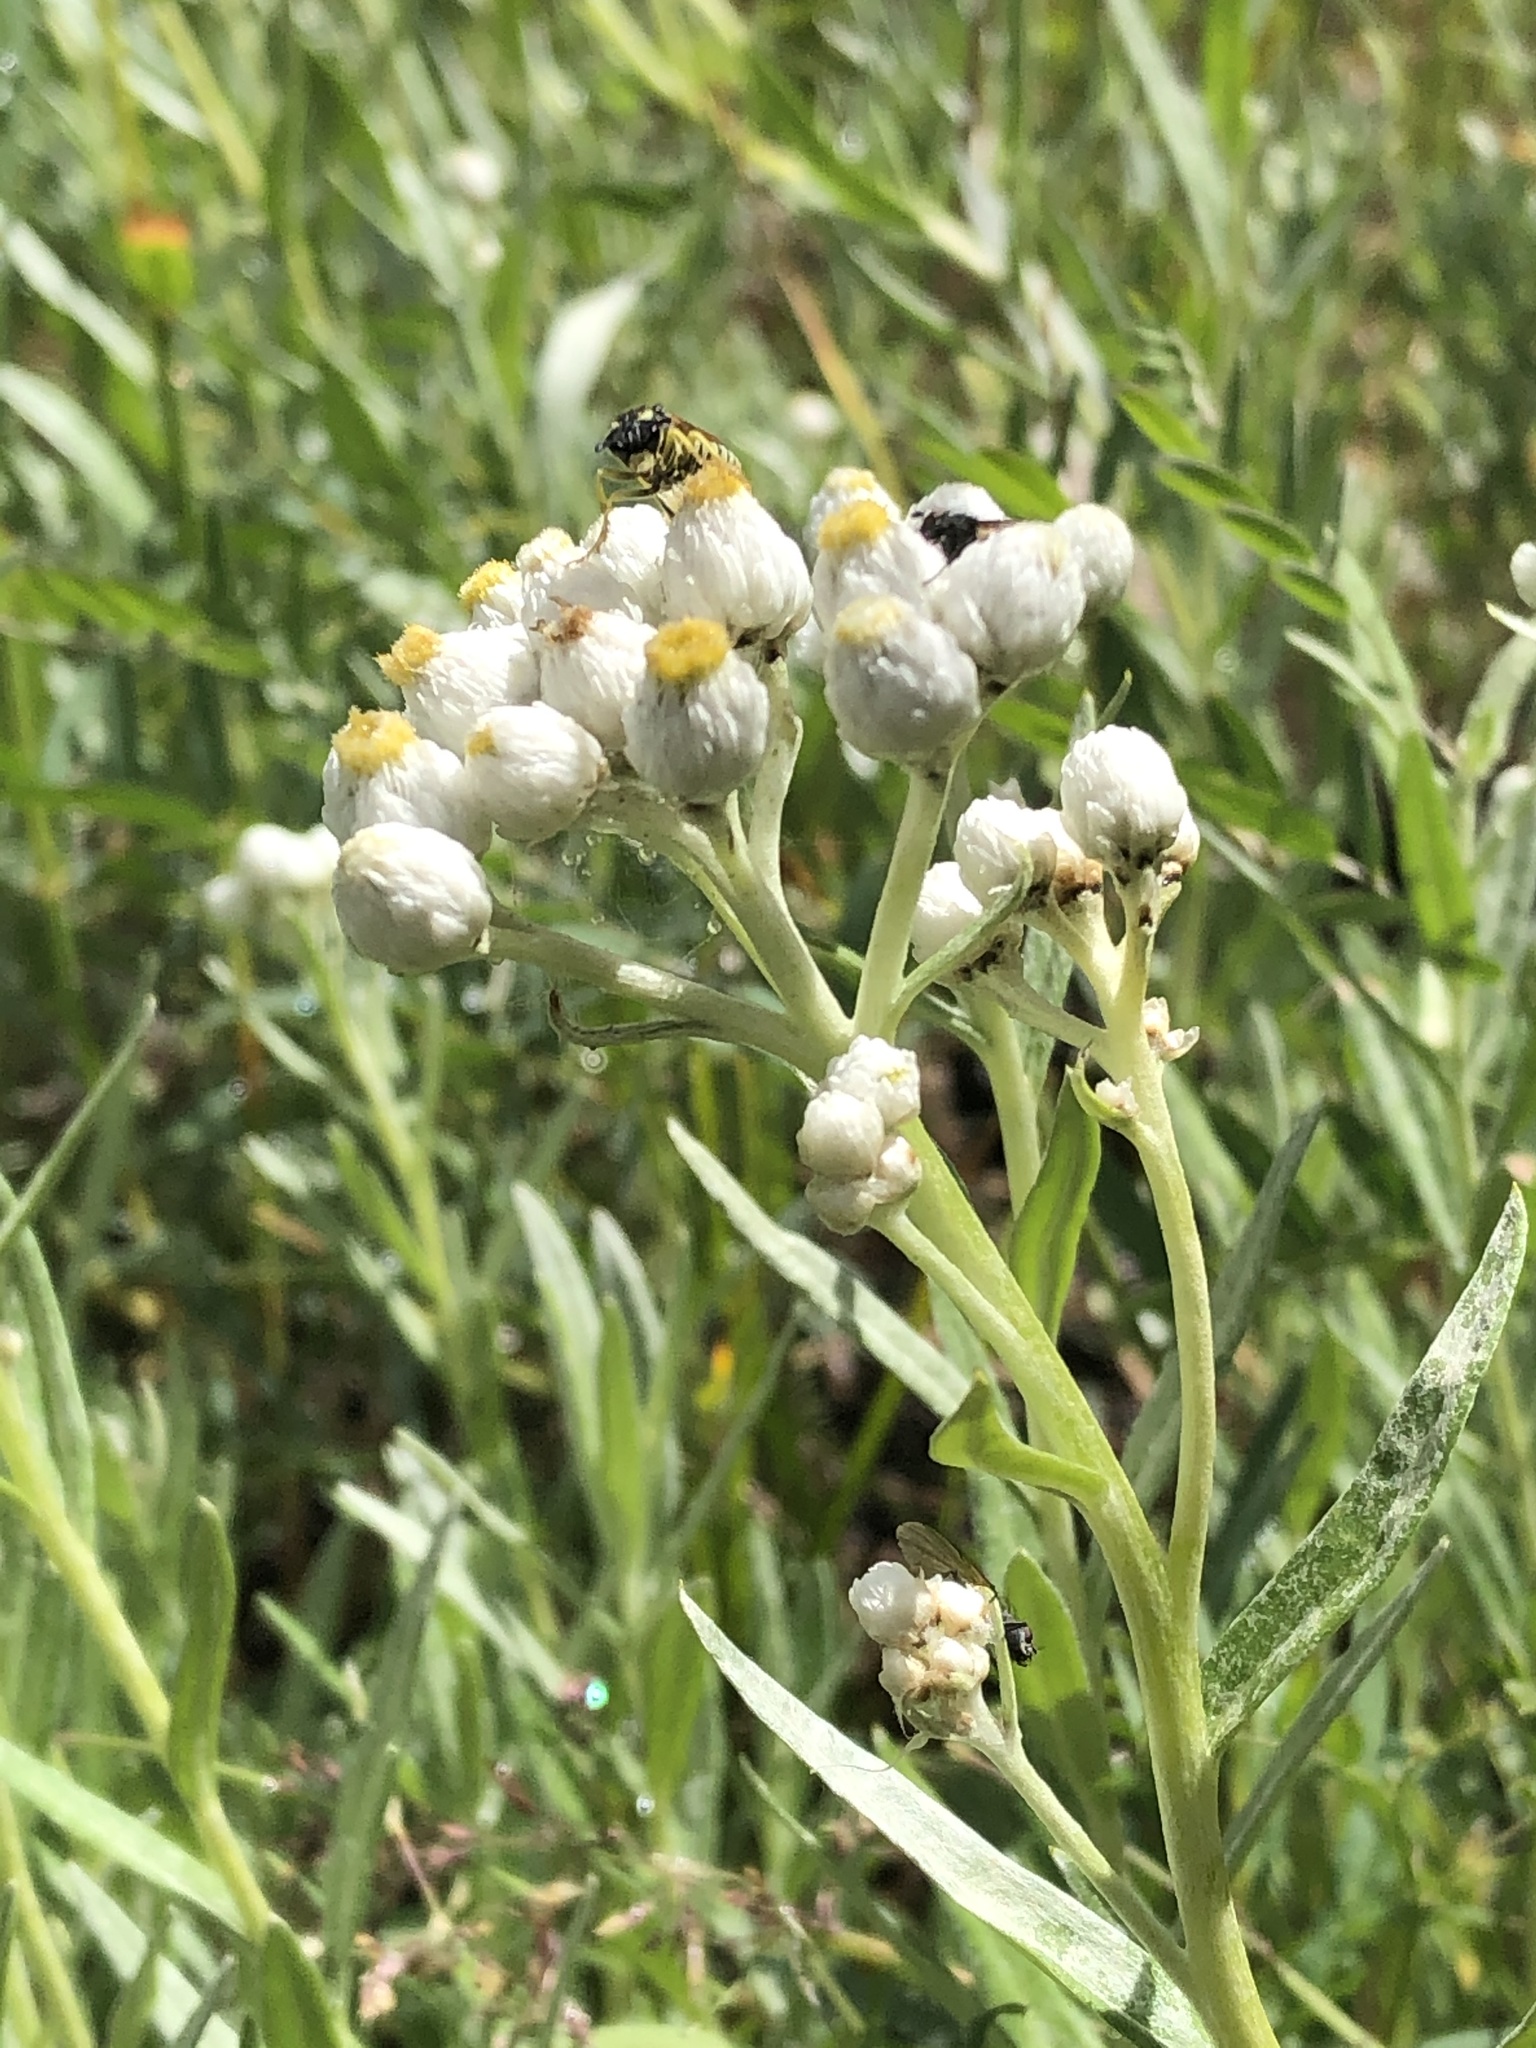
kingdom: Plantae
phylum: Tracheophyta
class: Magnoliopsida
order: Asterales
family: Asteraceae
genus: Anaphalis
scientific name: Anaphalis margaritacea
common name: Pearly everlasting
